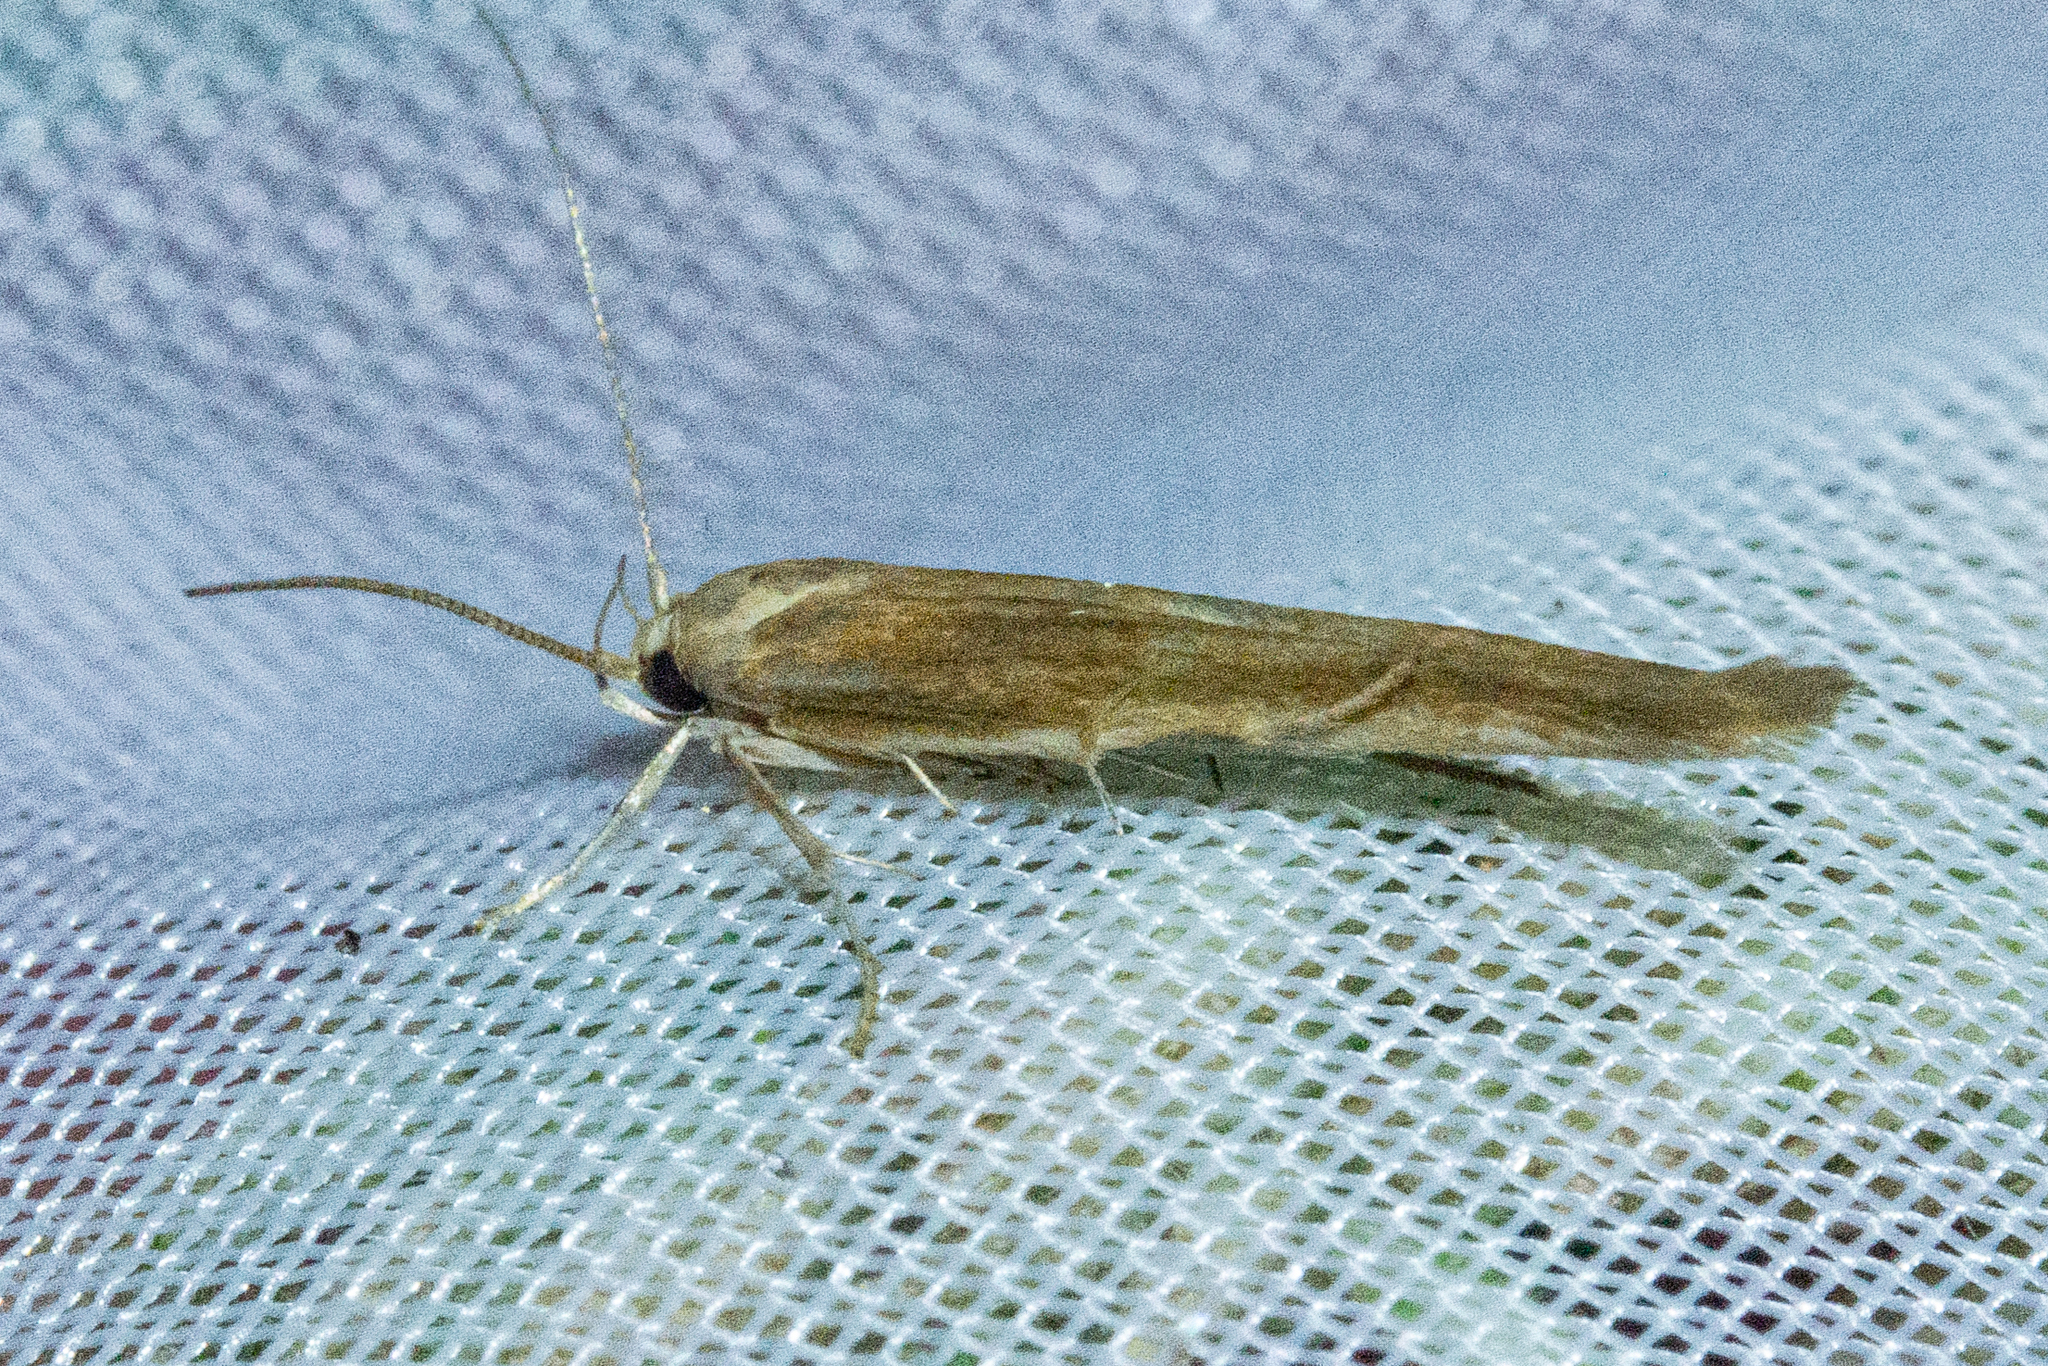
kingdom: Animalia
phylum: Arthropoda
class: Insecta
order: Lepidoptera
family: Stathmopodidae
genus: Stathmopoda
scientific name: Stathmopoda aposema
